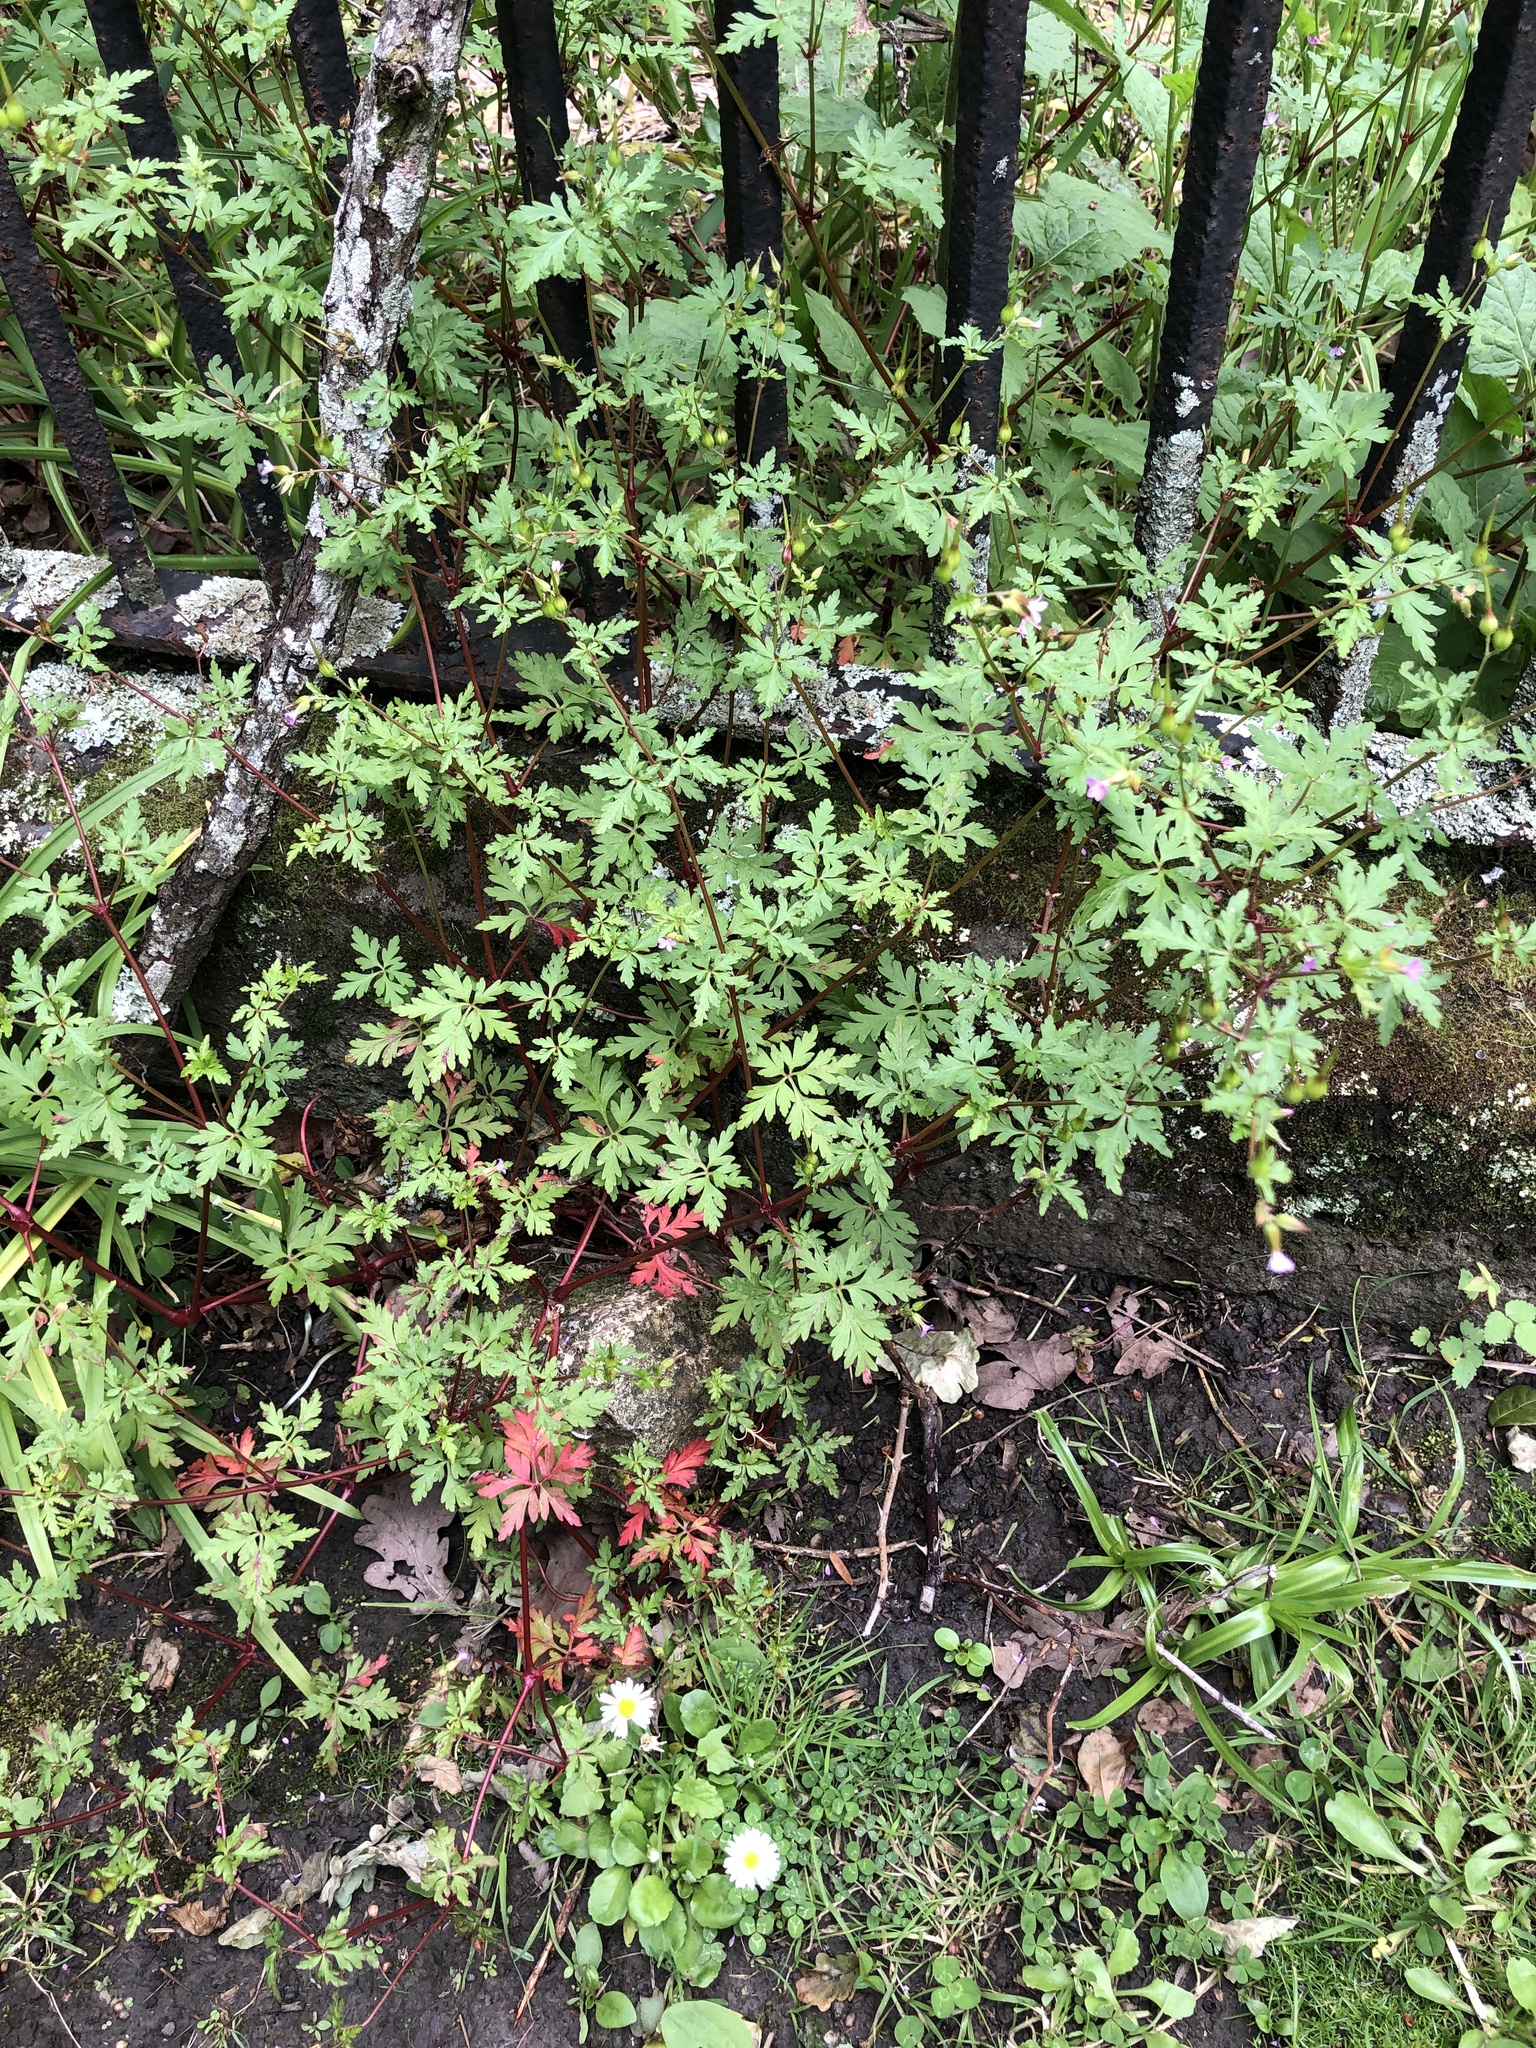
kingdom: Plantae
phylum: Tracheophyta
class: Magnoliopsida
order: Geraniales
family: Geraniaceae
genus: Geranium
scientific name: Geranium robertianum
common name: Herb-robert
